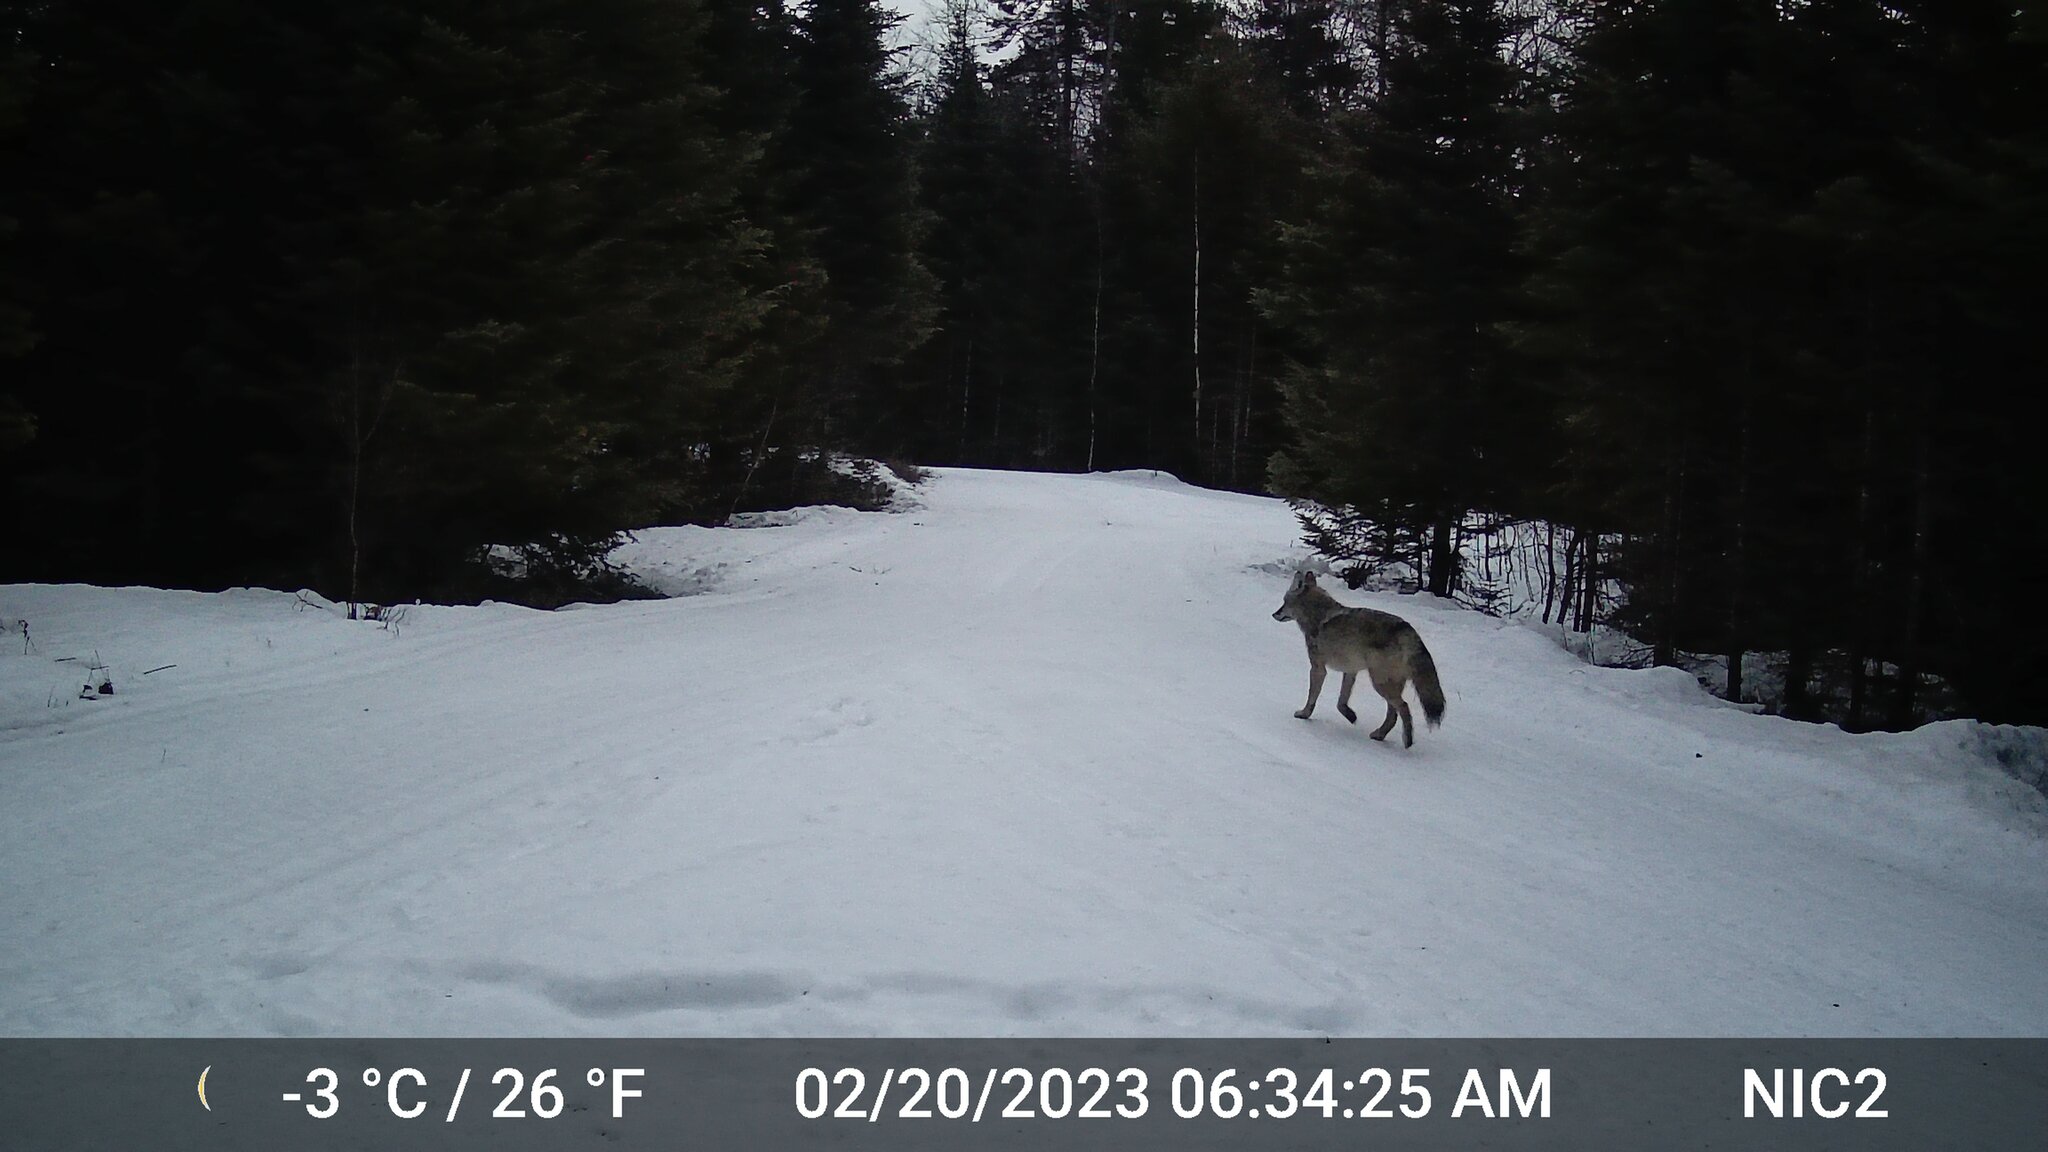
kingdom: Animalia
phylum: Chordata
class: Mammalia
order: Carnivora
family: Canidae
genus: Canis
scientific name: Canis latrans
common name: Coyote
